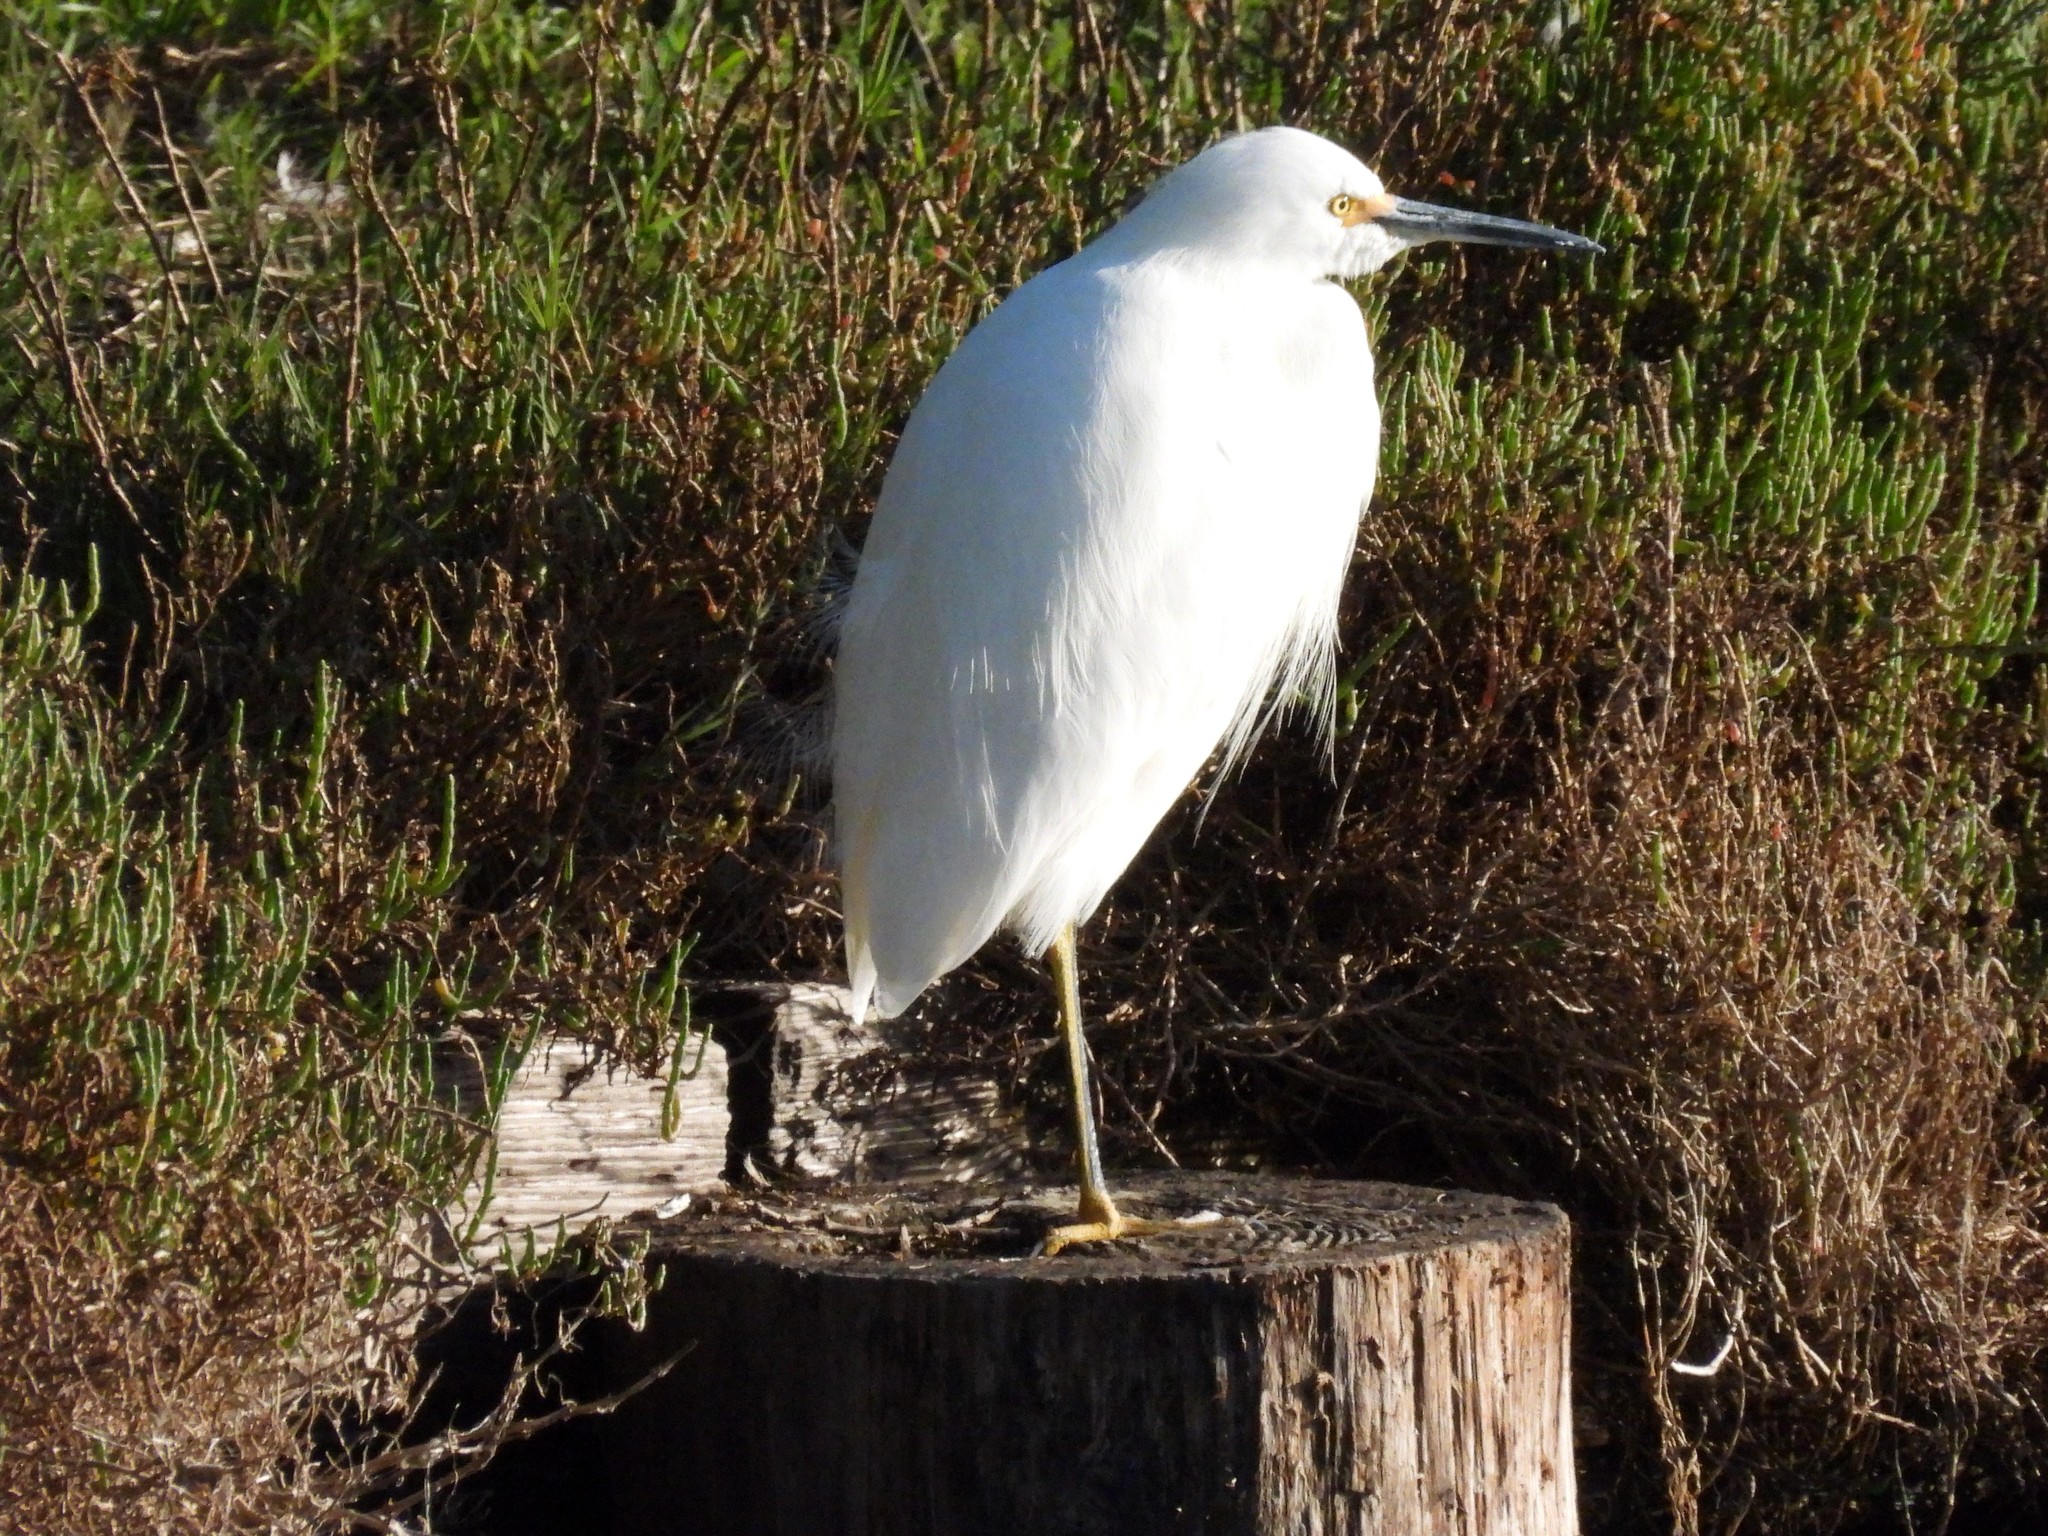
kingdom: Animalia
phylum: Chordata
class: Aves
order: Pelecaniformes
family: Ardeidae
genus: Egretta
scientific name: Egretta thula
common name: Snowy egret
